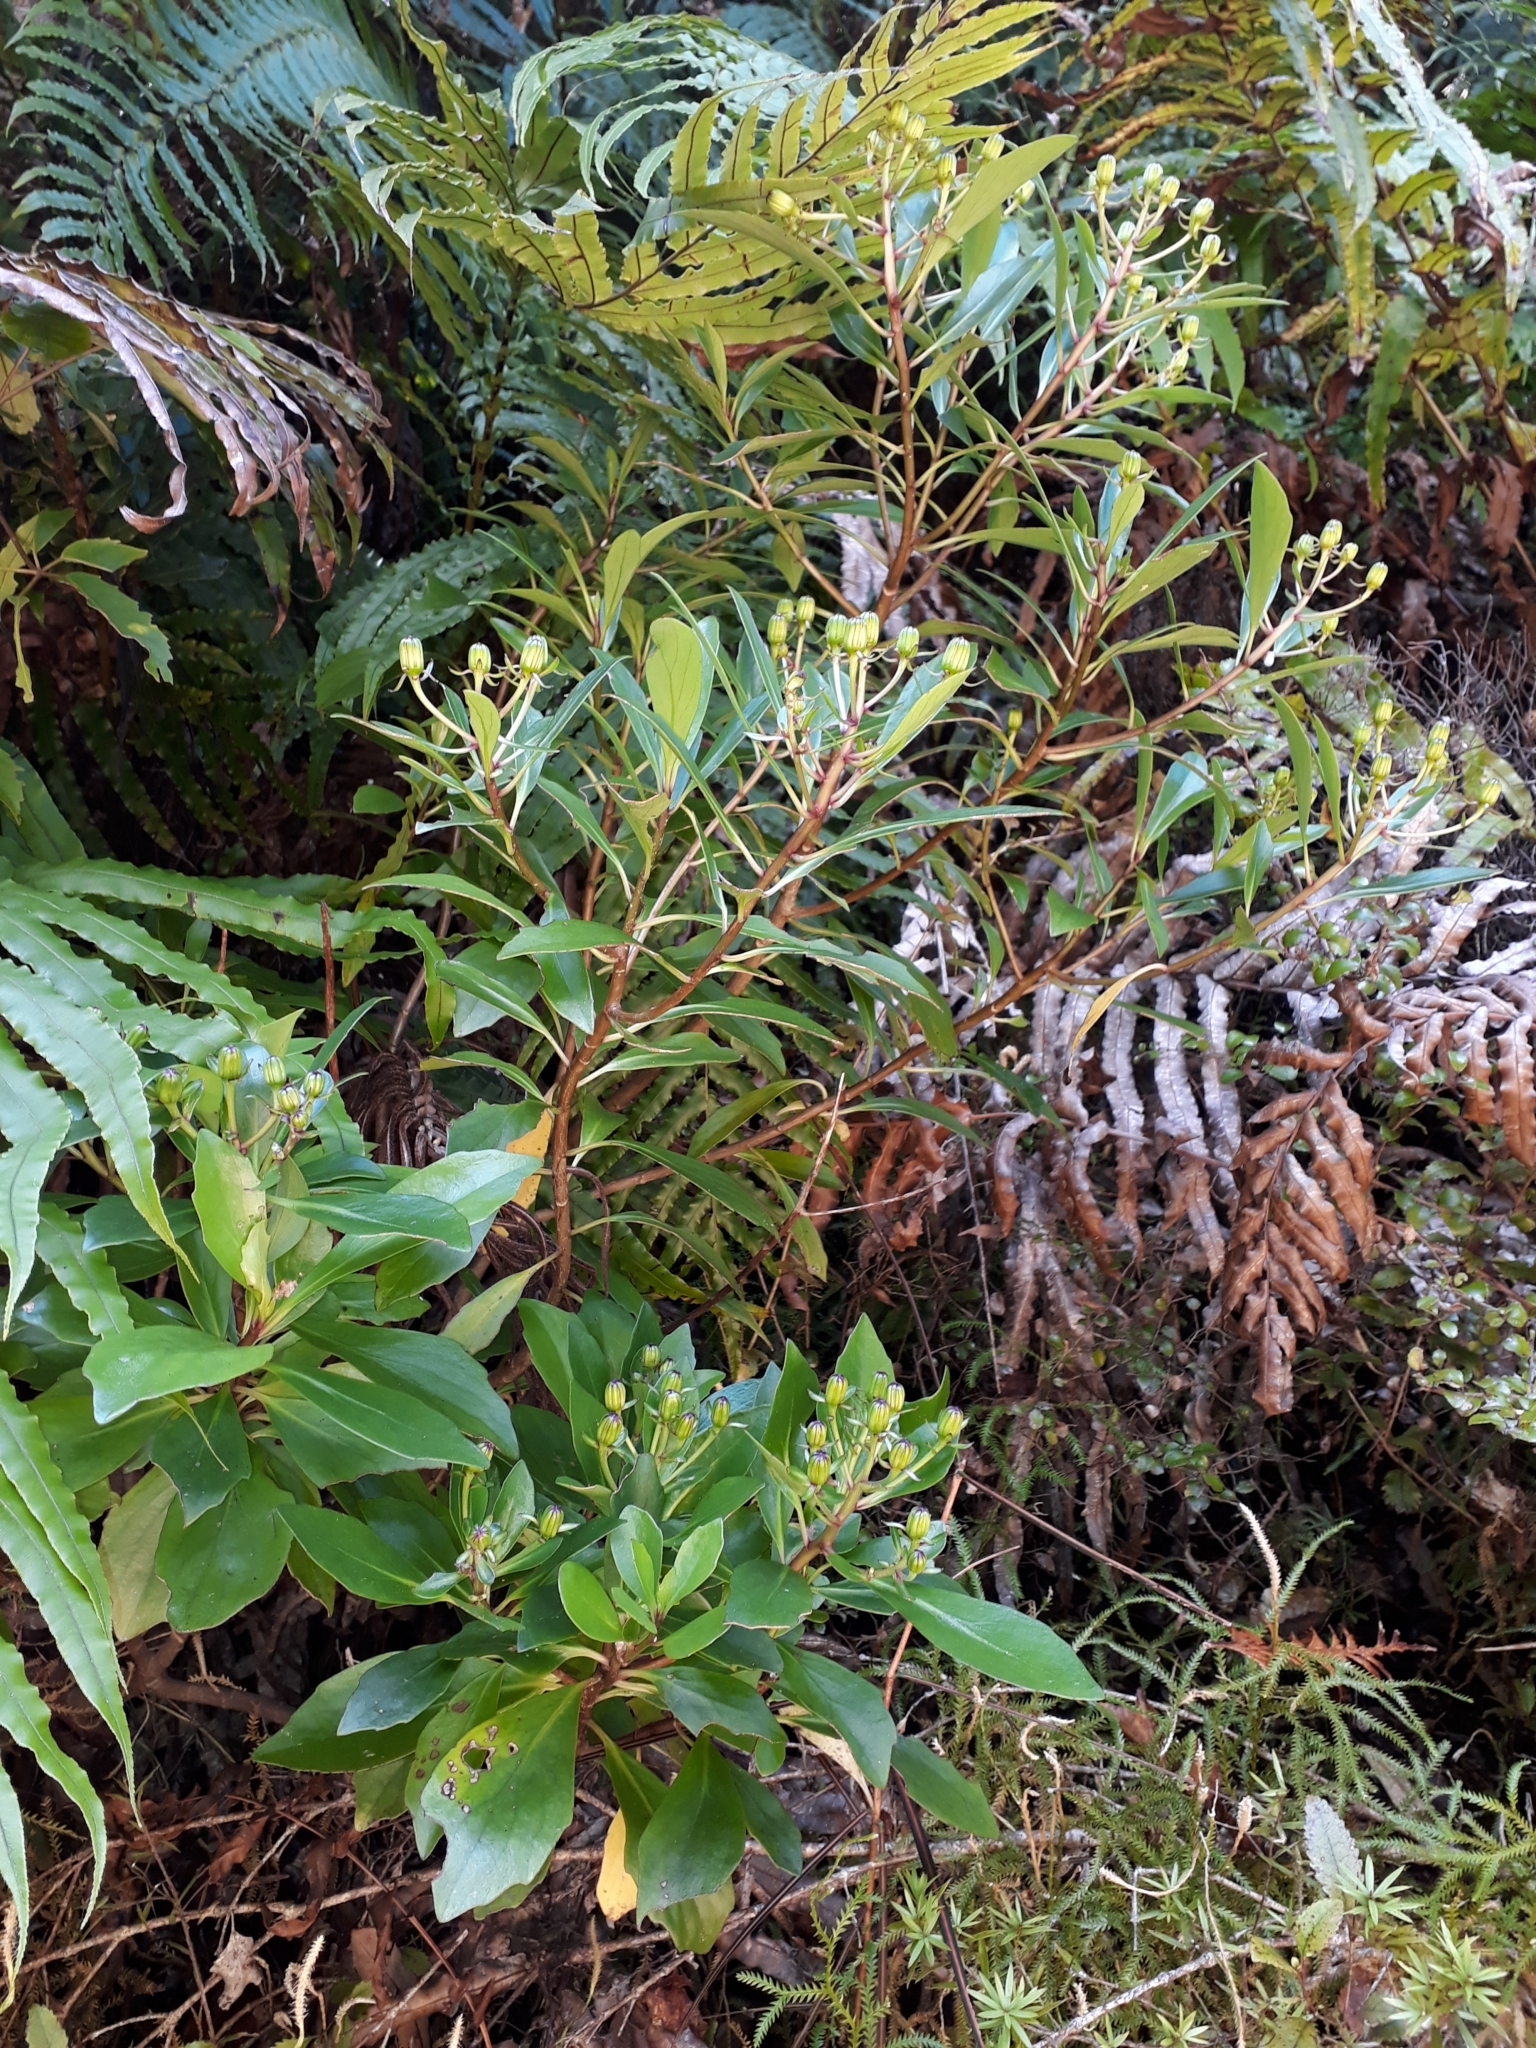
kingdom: Plantae
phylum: Tracheophyta
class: Magnoliopsida
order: Asterales
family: Asteraceae
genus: Brachyglottis
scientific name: Brachyglottis kirkii
